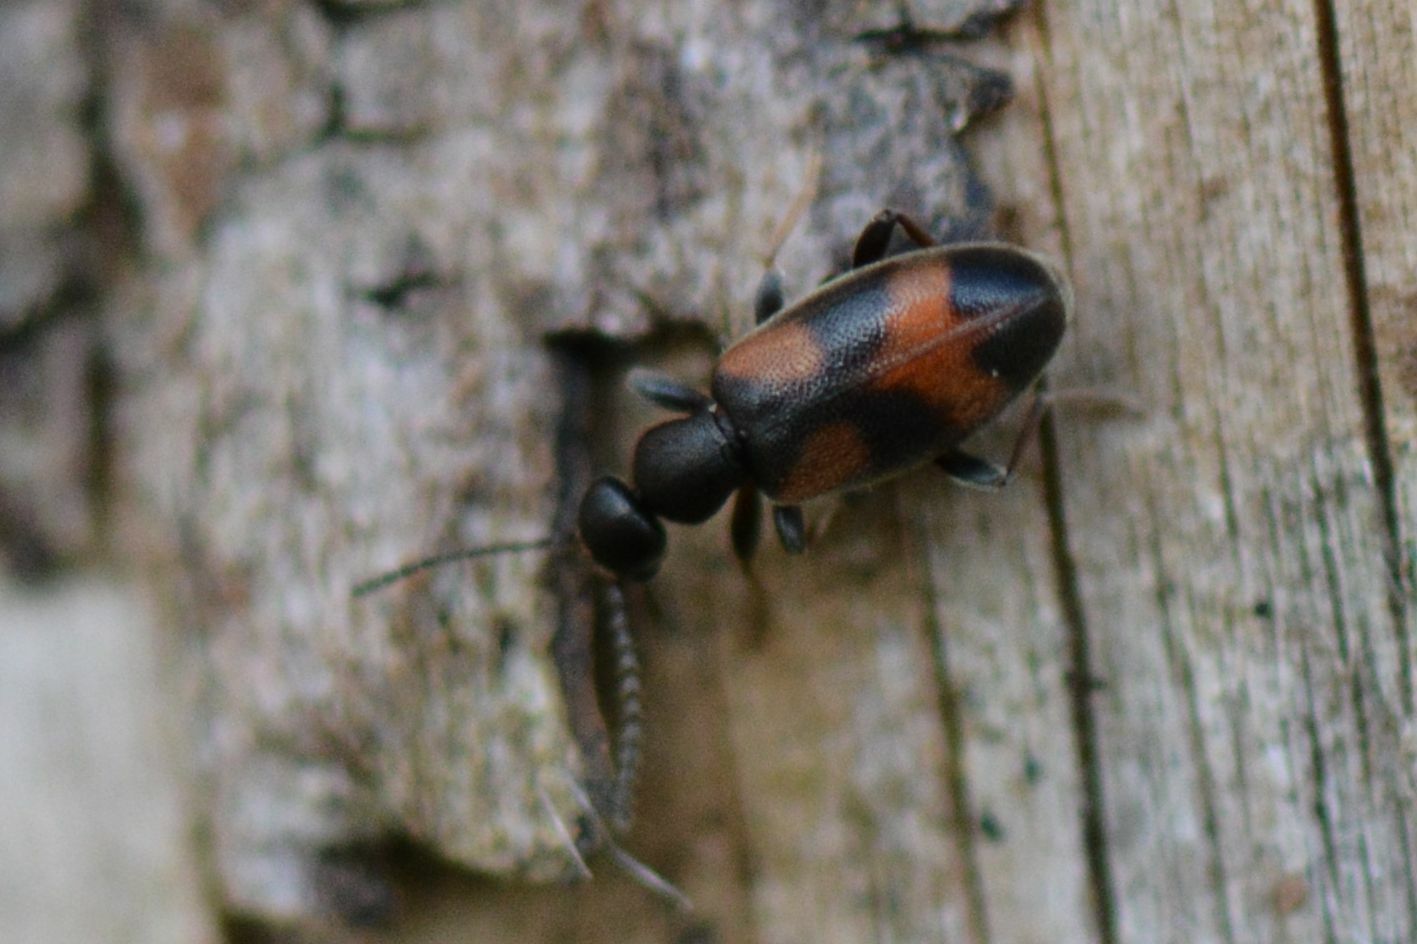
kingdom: Animalia
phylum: Arthropoda
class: Insecta
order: Coleoptera
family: Anthicidae
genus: Anthicus
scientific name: Anthicus antherinus
